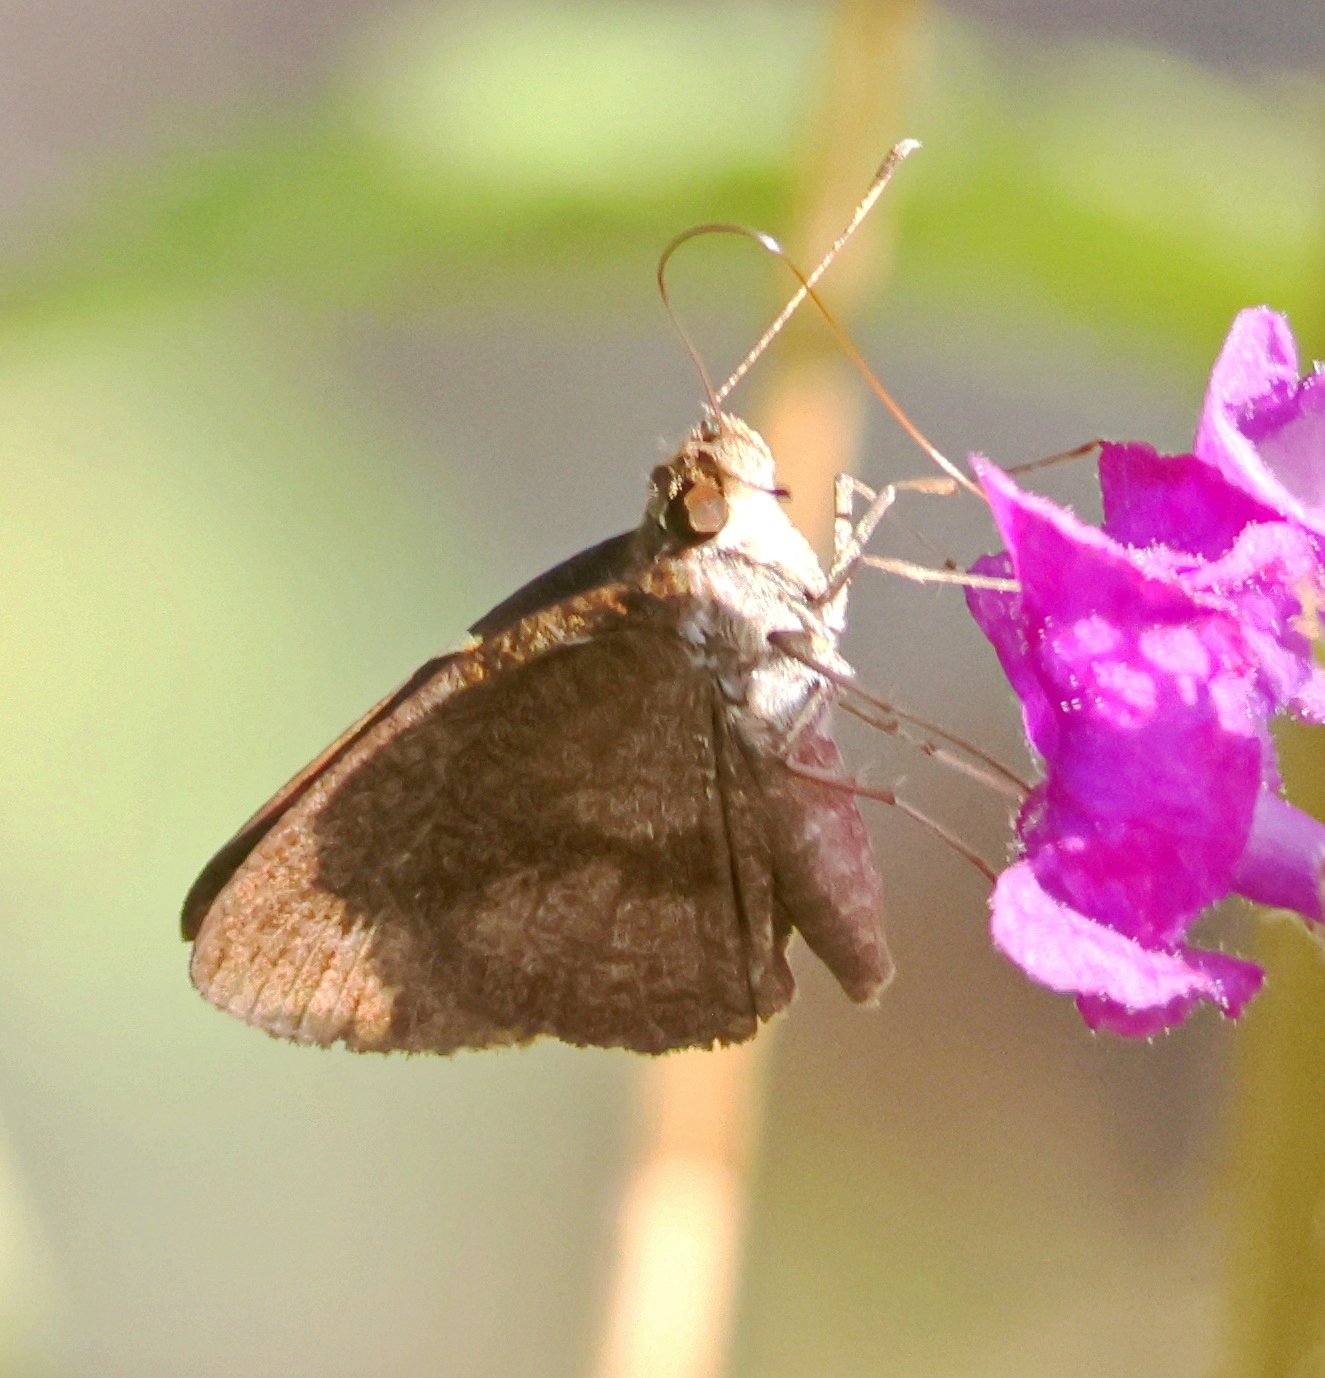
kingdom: Animalia
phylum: Arthropoda
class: Insecta
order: Lepidoptera
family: Hesperiidae
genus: Synapte
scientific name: Synapte salenus
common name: Salenus skipper
